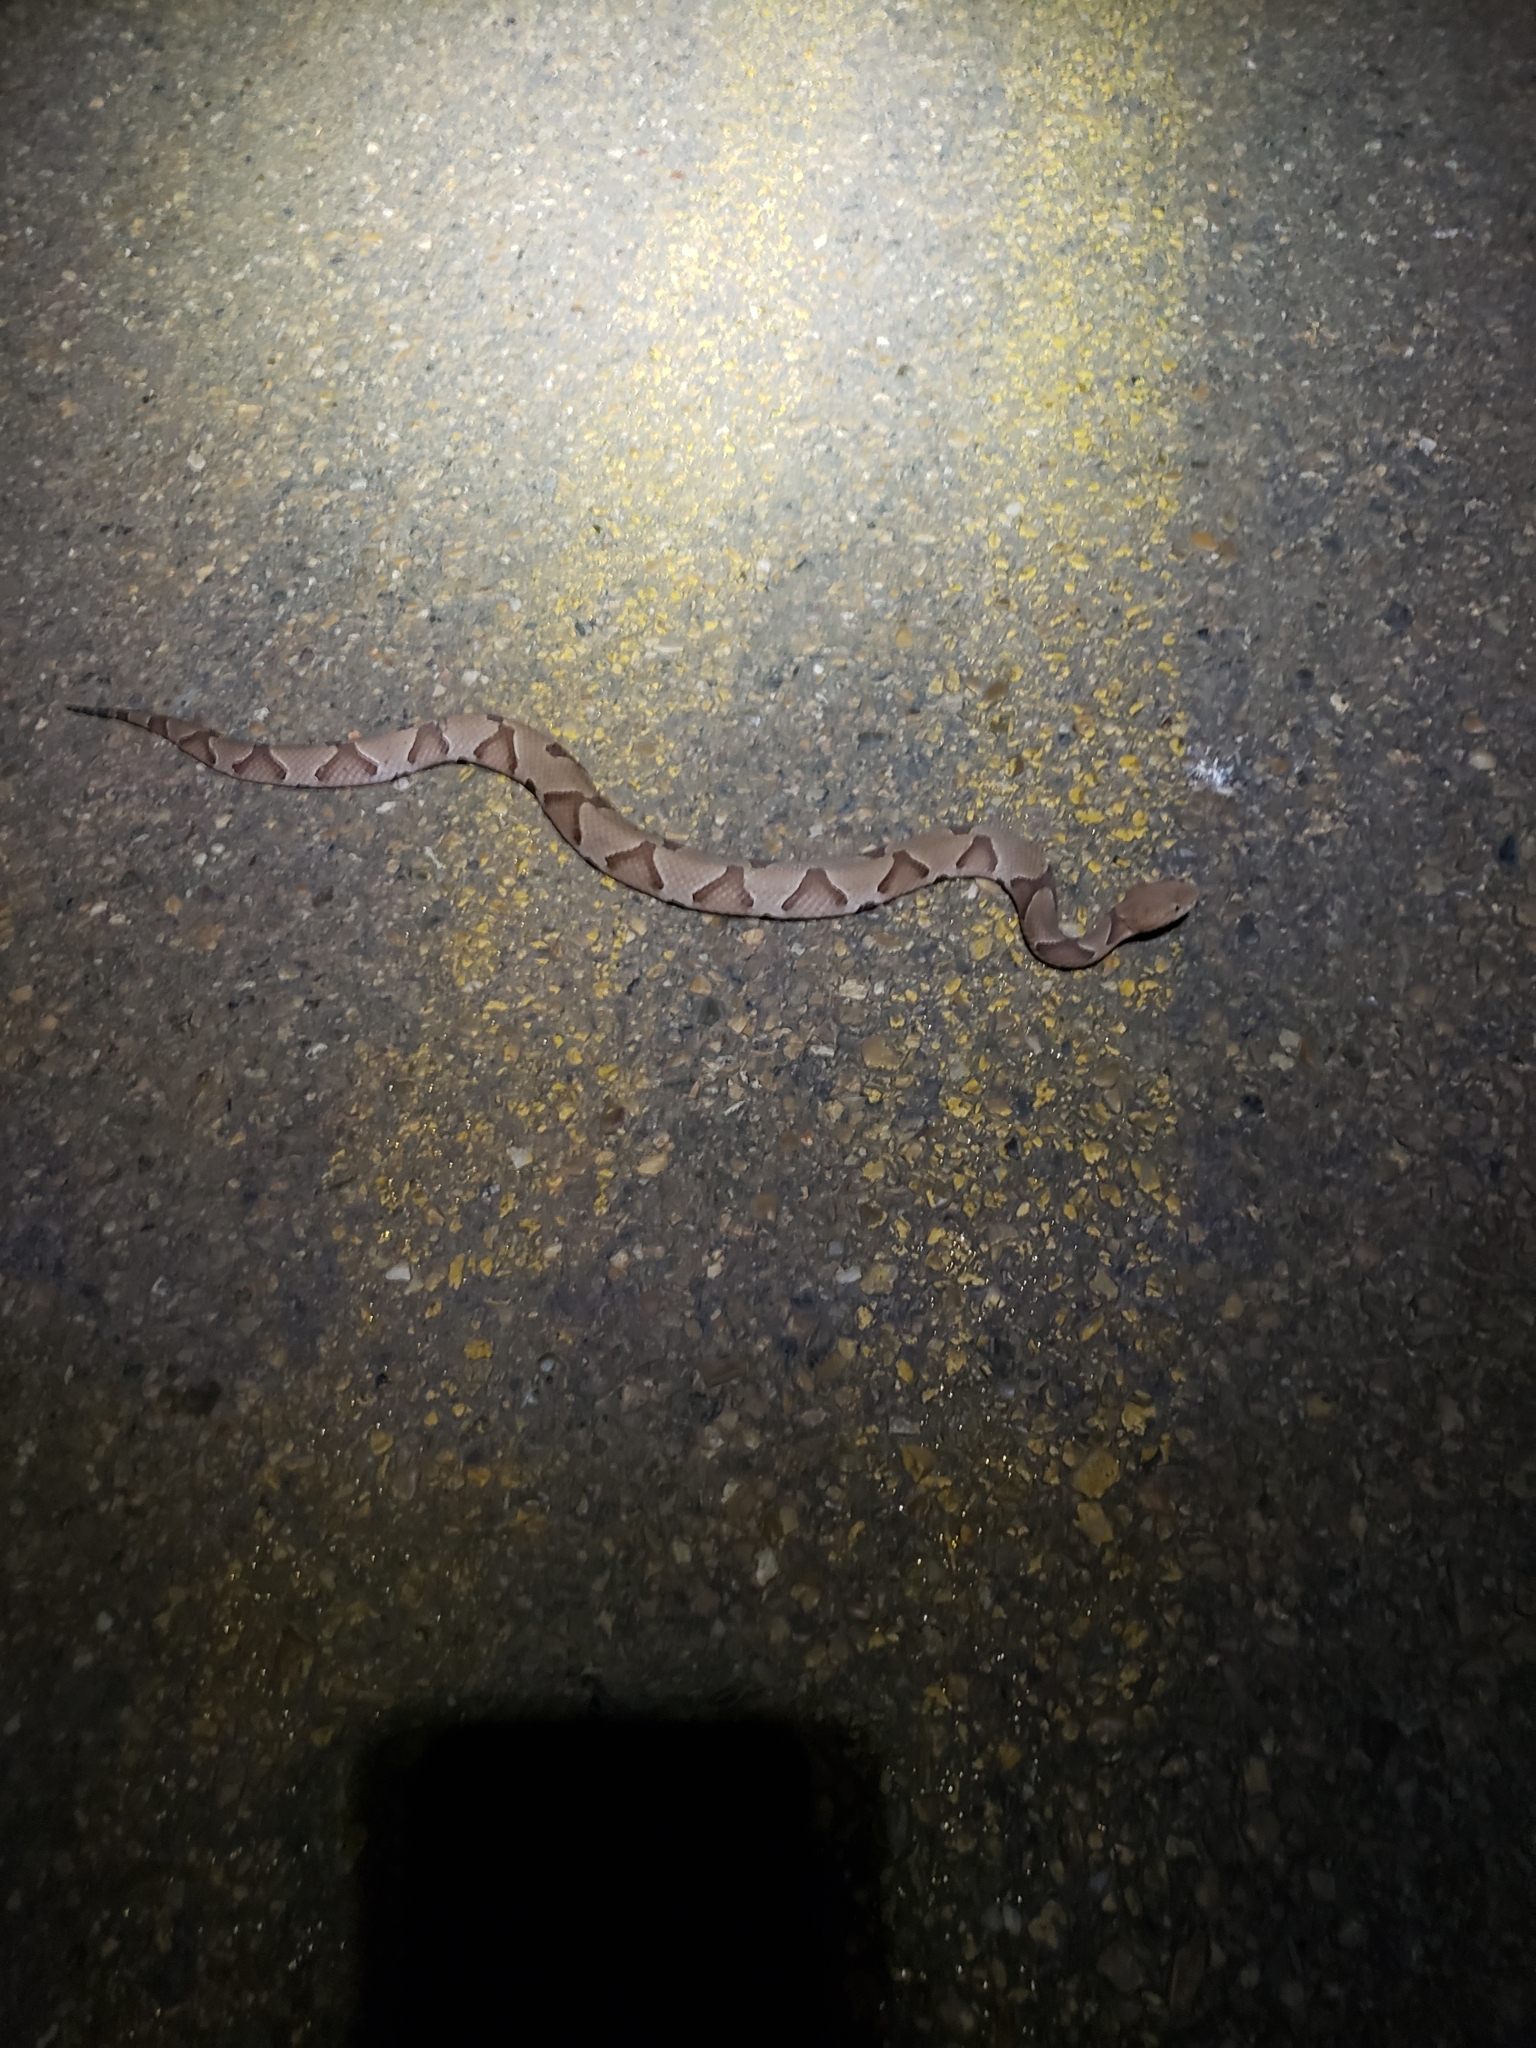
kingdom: Animalia
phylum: Chordata
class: Squamata
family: Viperidae
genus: Agkistrodon
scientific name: Agkistrodon contortrix
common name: Northern copperhead
